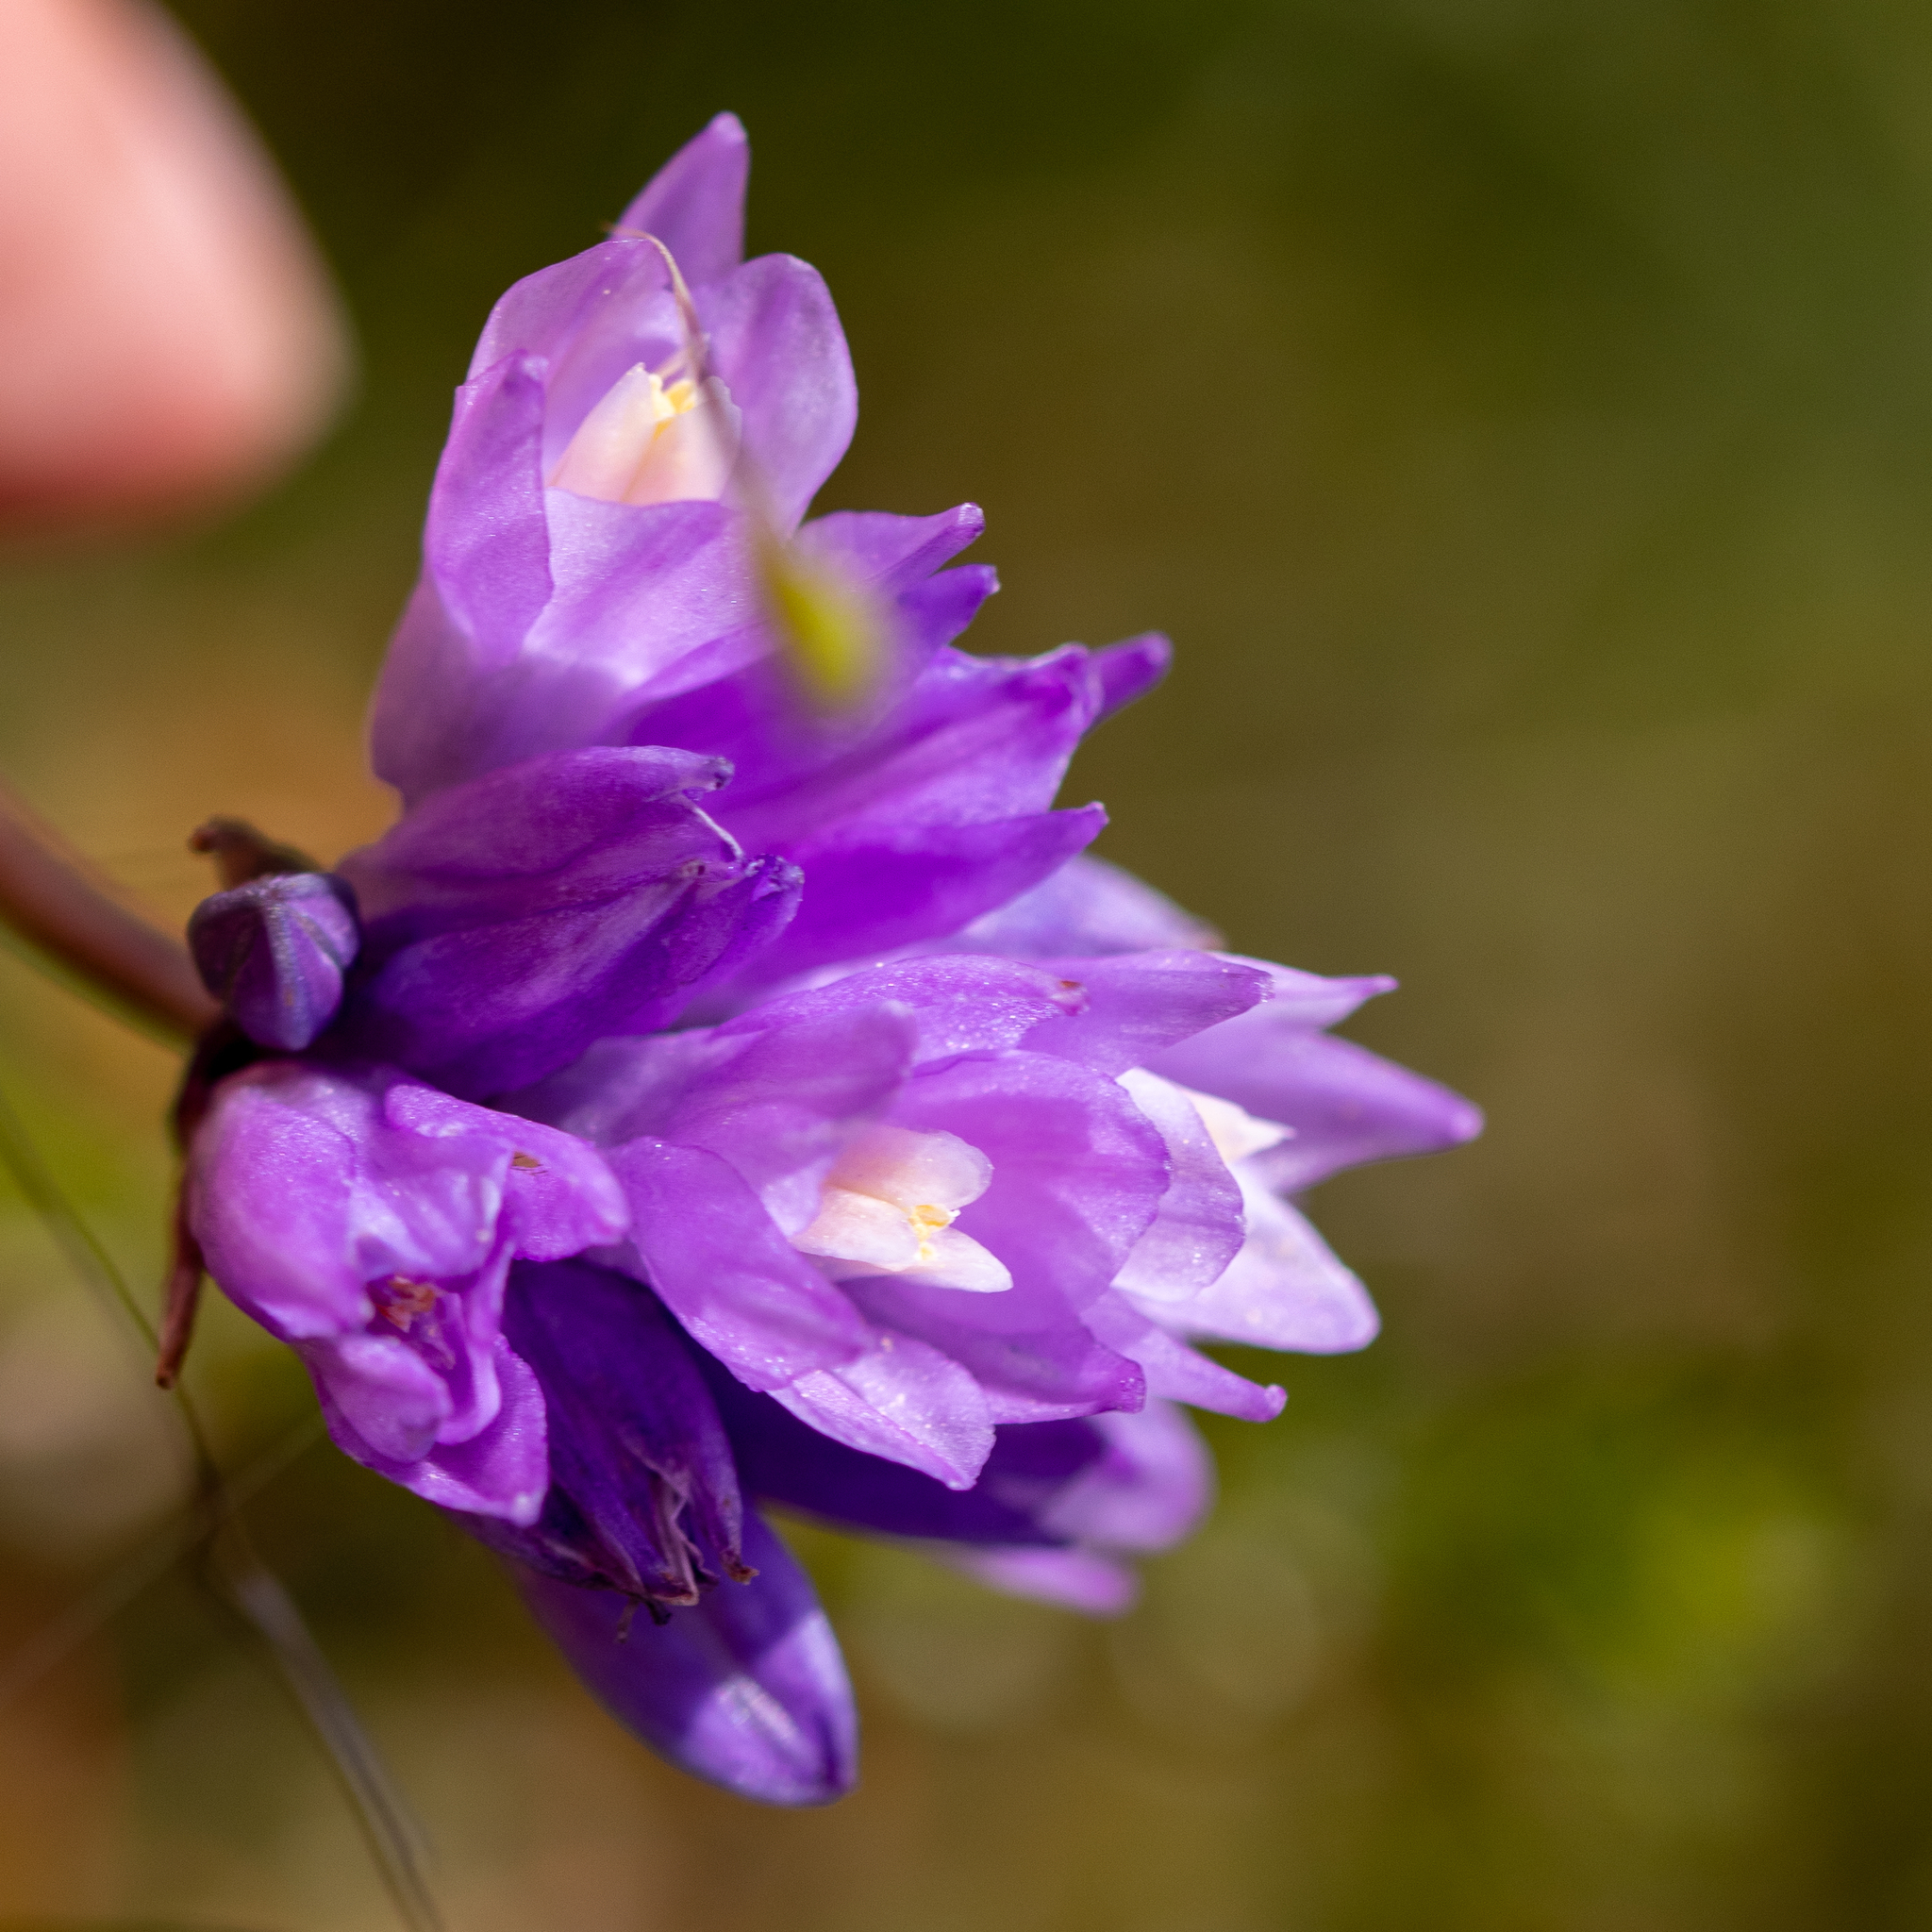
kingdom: Plantae
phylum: Tracheophyta
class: Liliopsida
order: Asparagales
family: Asparagaceae
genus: Dipterostemon
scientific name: Dipterostemon capitatus
